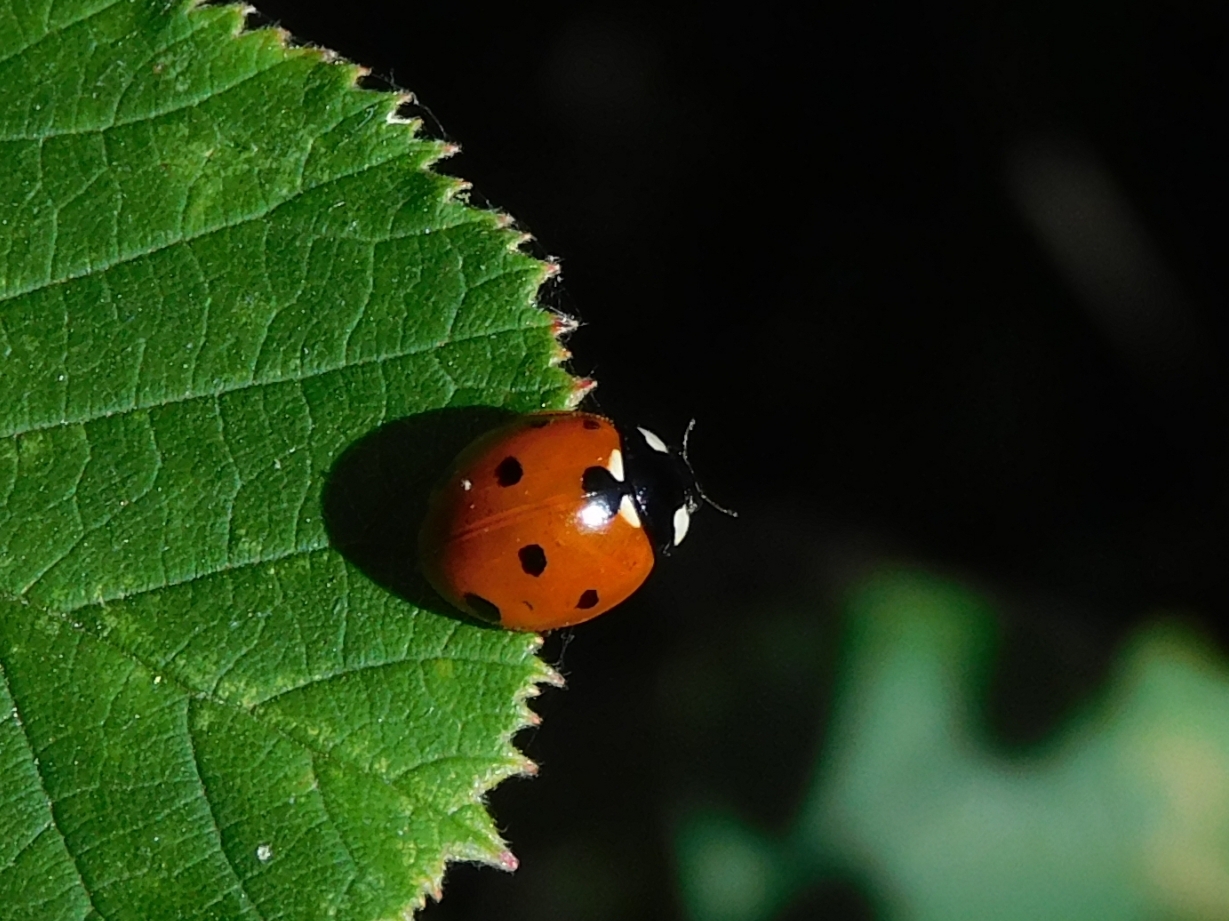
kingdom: Animalia
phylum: Arthropoda
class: Insecta
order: Coleoptera
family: Coccinellidae
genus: Coccinella
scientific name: Coccinella septempunctata
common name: Sevenspotted lady beetle
